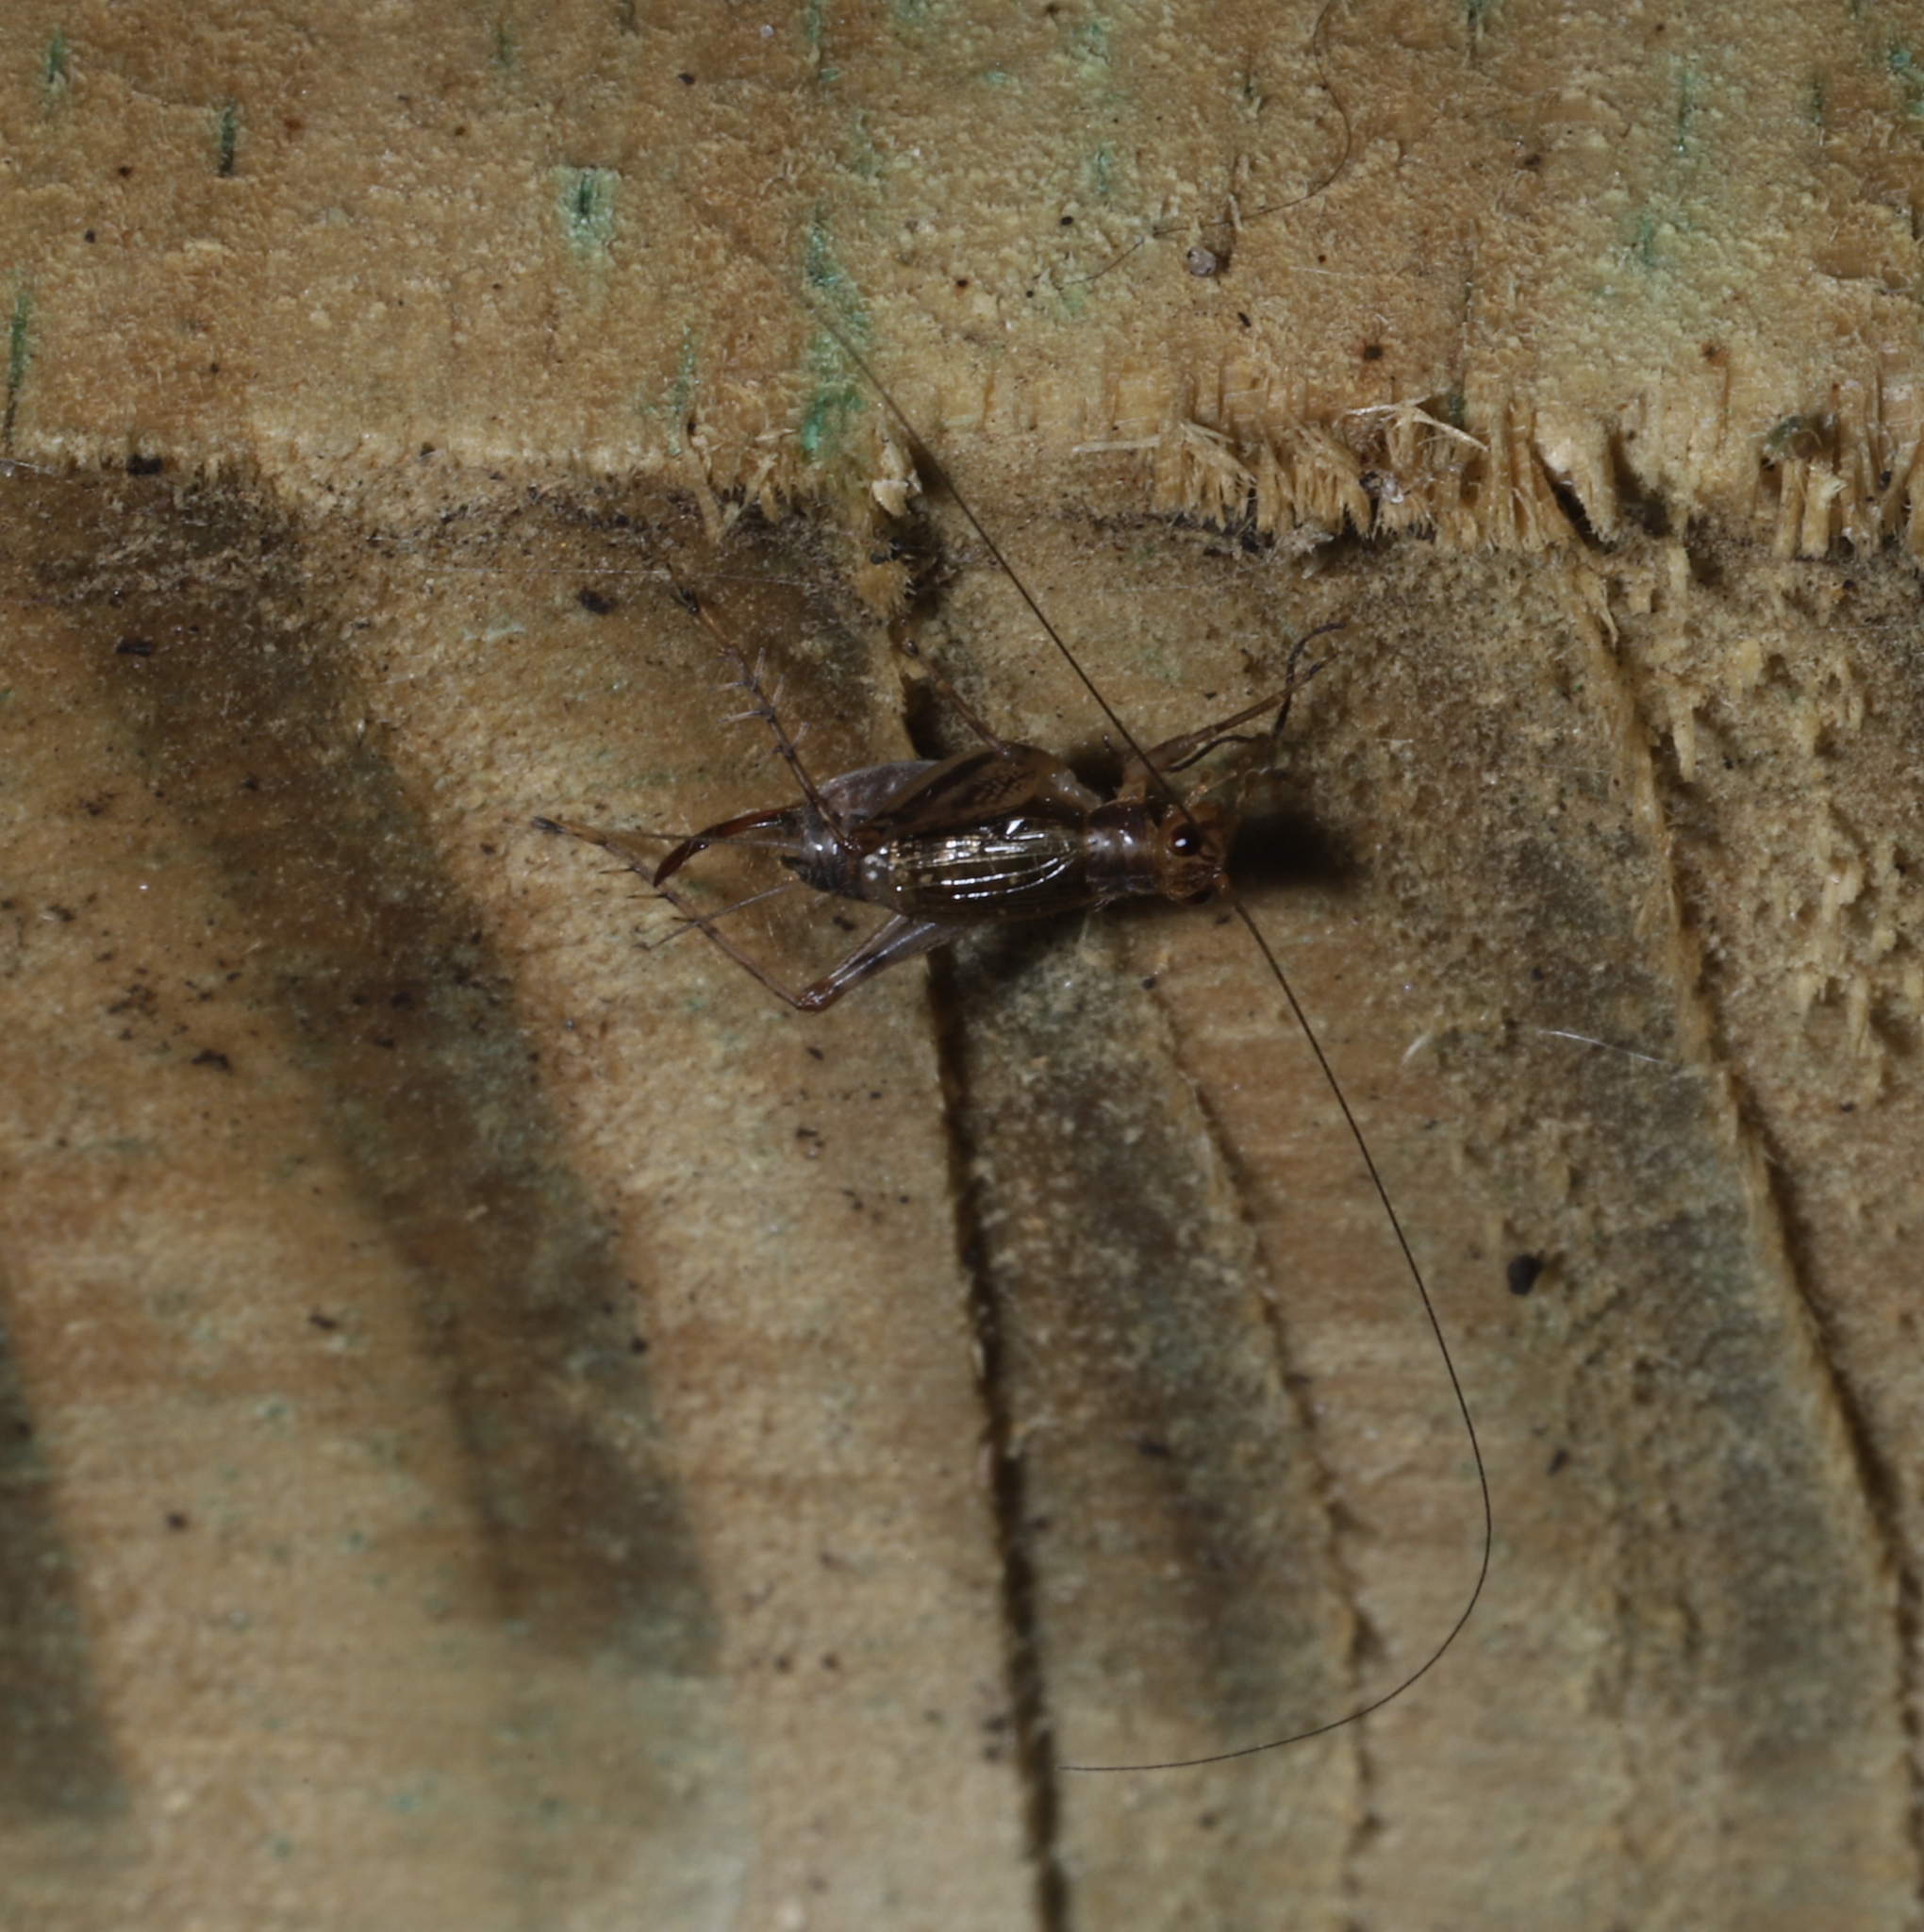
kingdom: Animalia
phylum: Arthropoda
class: Insecta
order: Orthoptera
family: Trigonidiidae
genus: Anaxipha
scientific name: Anaxipha exigua
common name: Say's bush cricket
